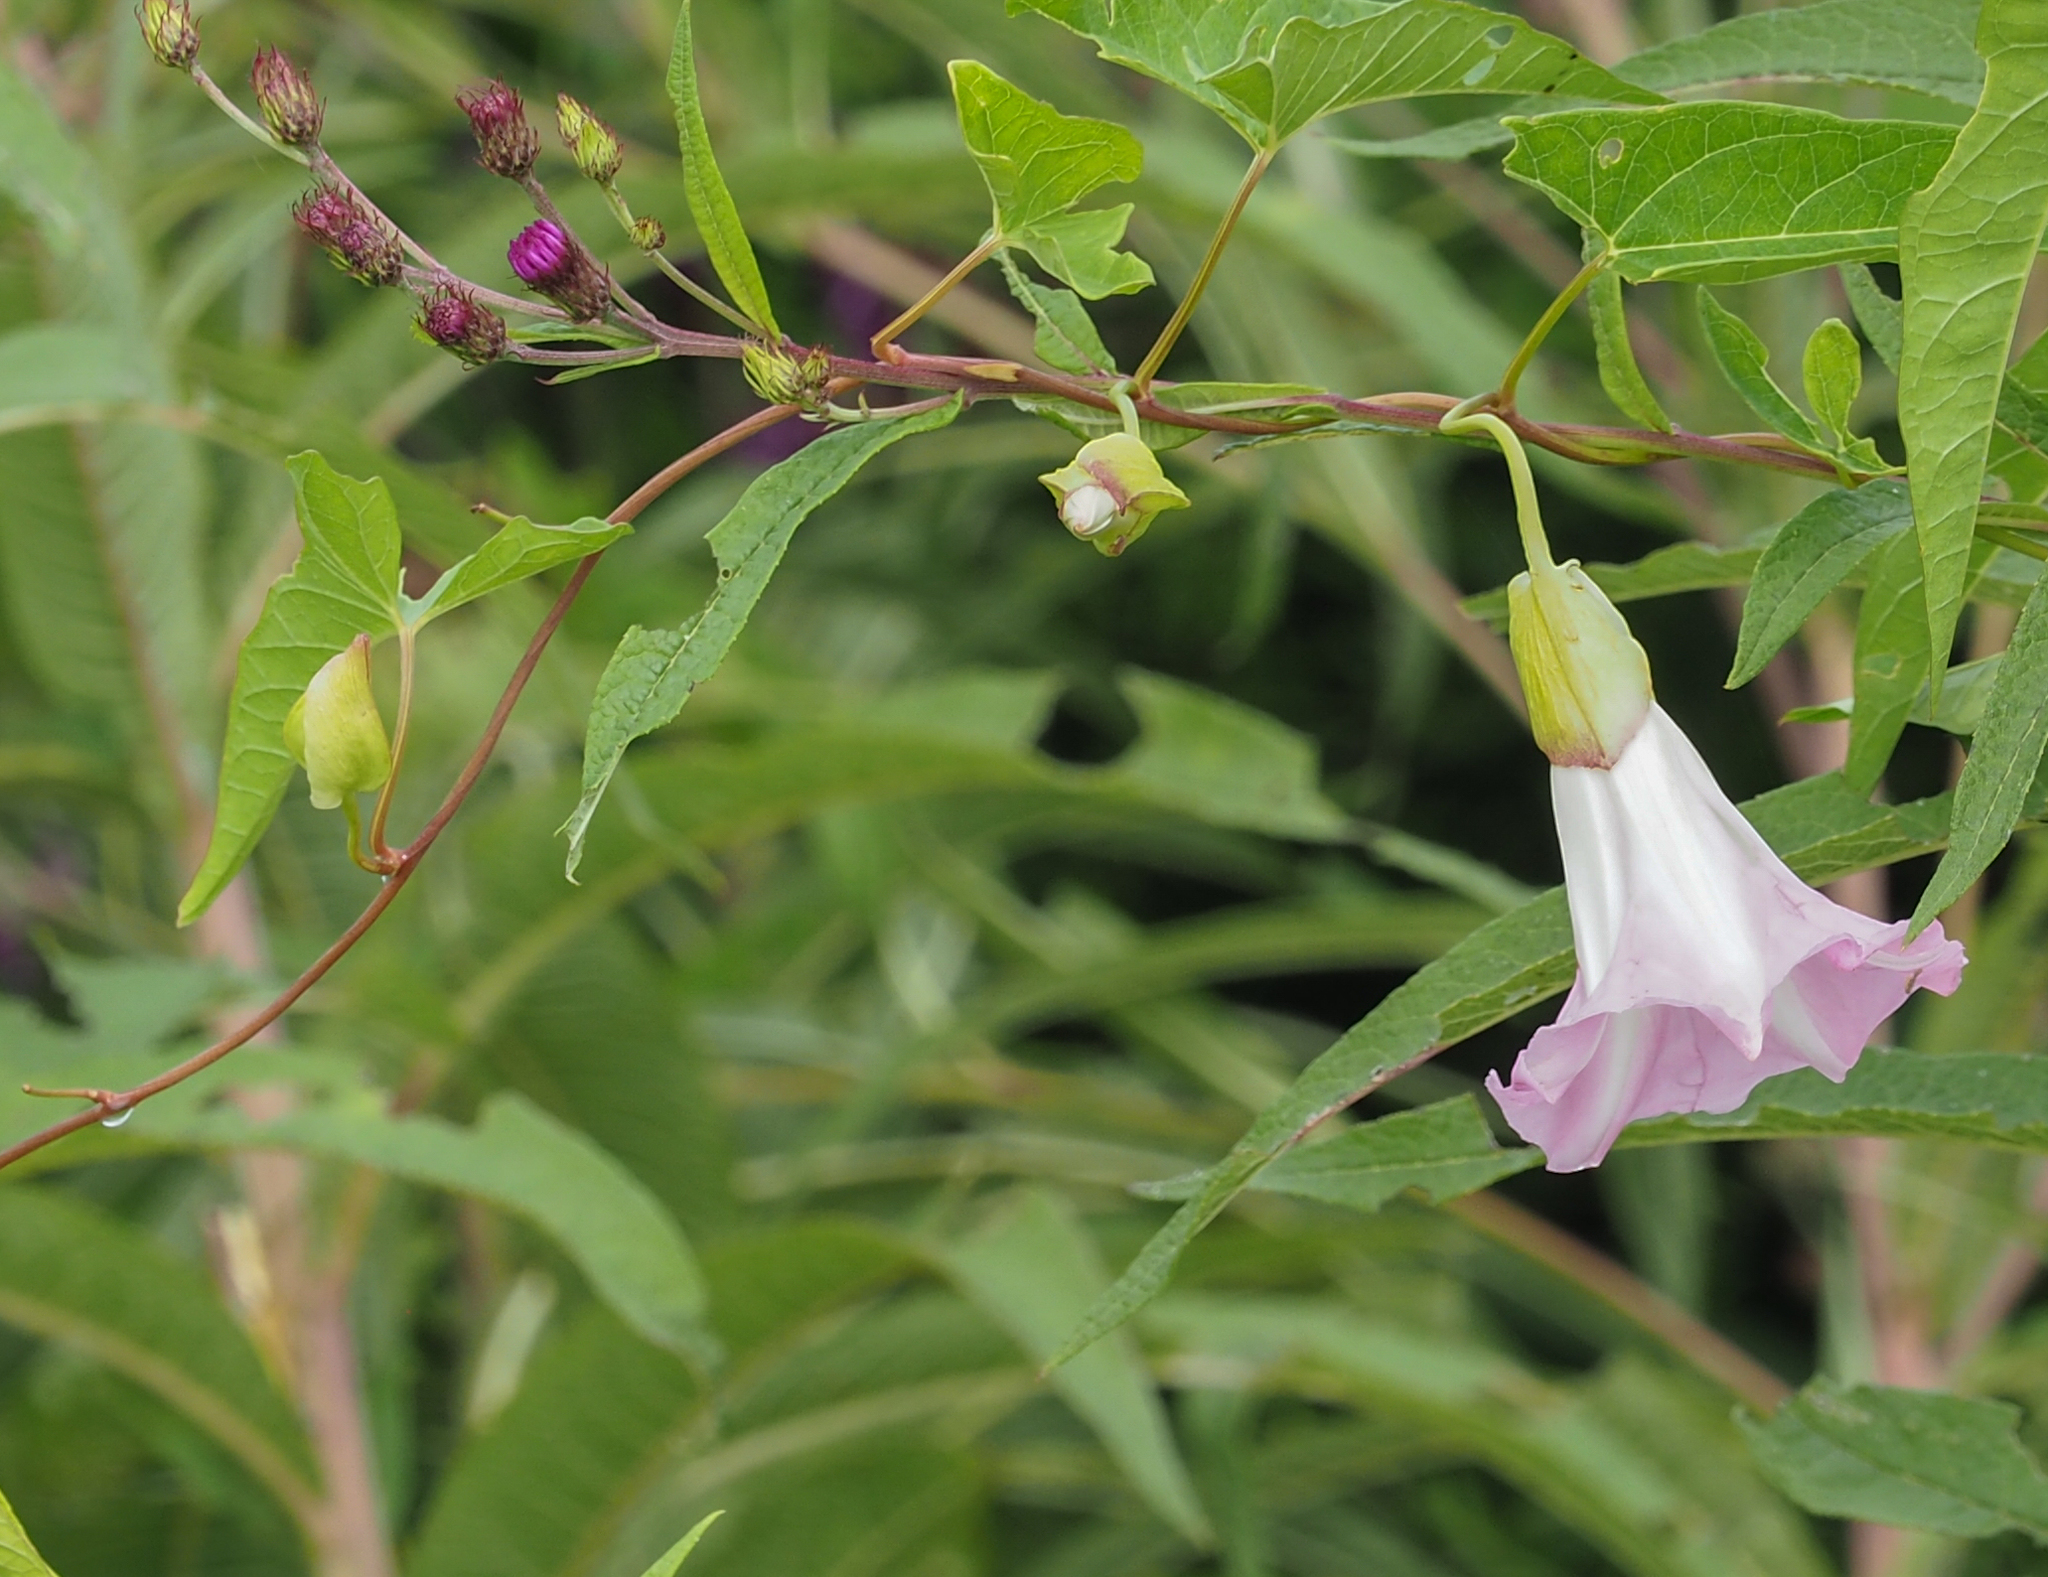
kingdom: Plantae
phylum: Tracheophyta
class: Magnoliopsida
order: Solanales
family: Convolvulaceae
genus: Calystegia
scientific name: Calystegia sepium
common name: Hedge bindweed
